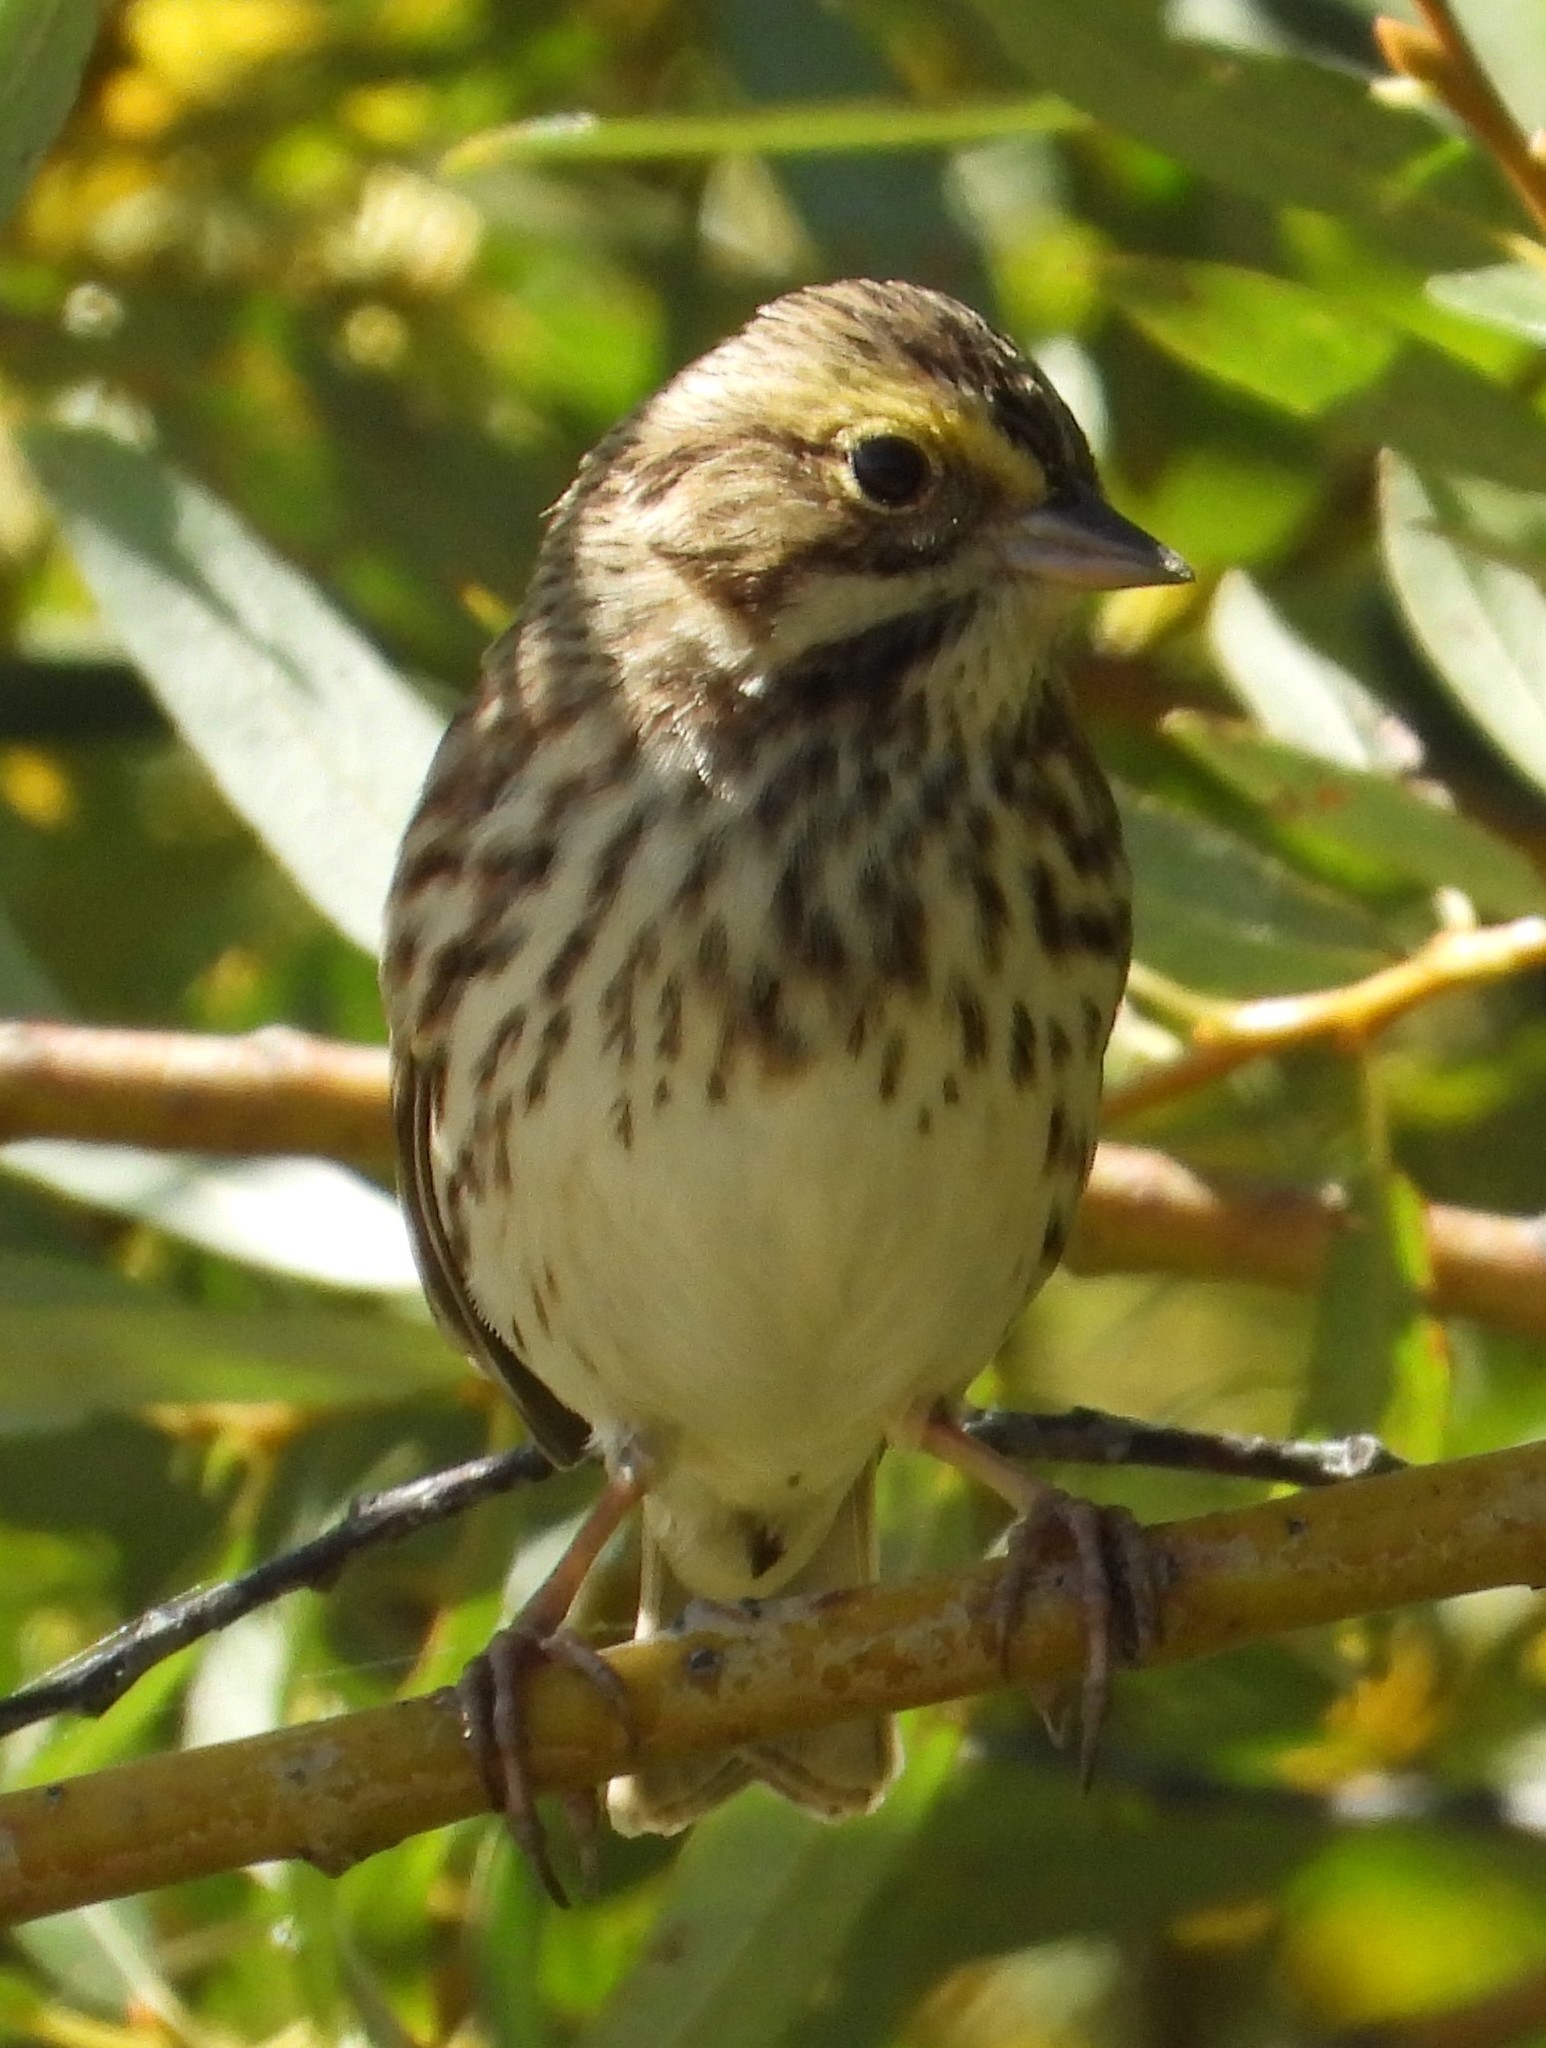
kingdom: Animalia
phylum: Chordata
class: Aves
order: Passeriformes
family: Passerellidae
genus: Passerculus
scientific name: Passerculus sandwichensis
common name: Savannah sparrow
